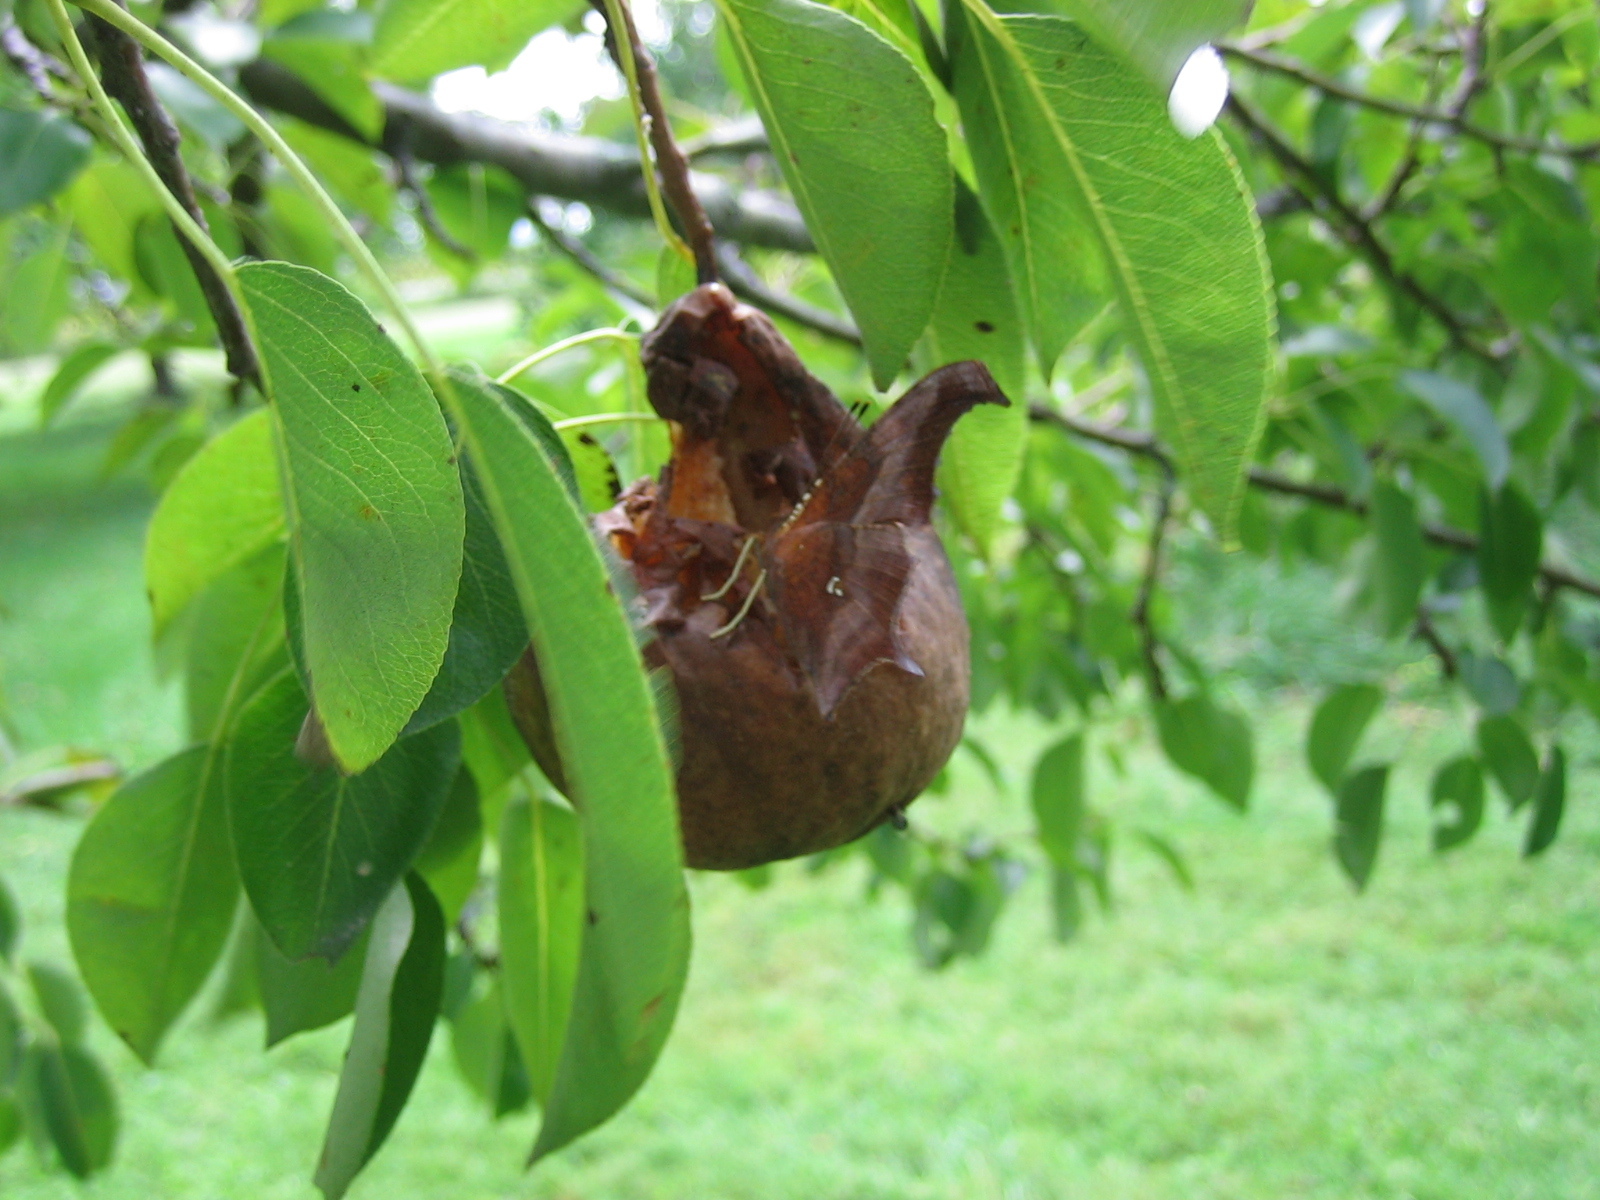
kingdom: Animalia
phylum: Arthropoda
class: Insecta
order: Lepidoptera
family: Nymphalidae
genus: Polygonia
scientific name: Polygonia interrogationis
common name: Question mark
